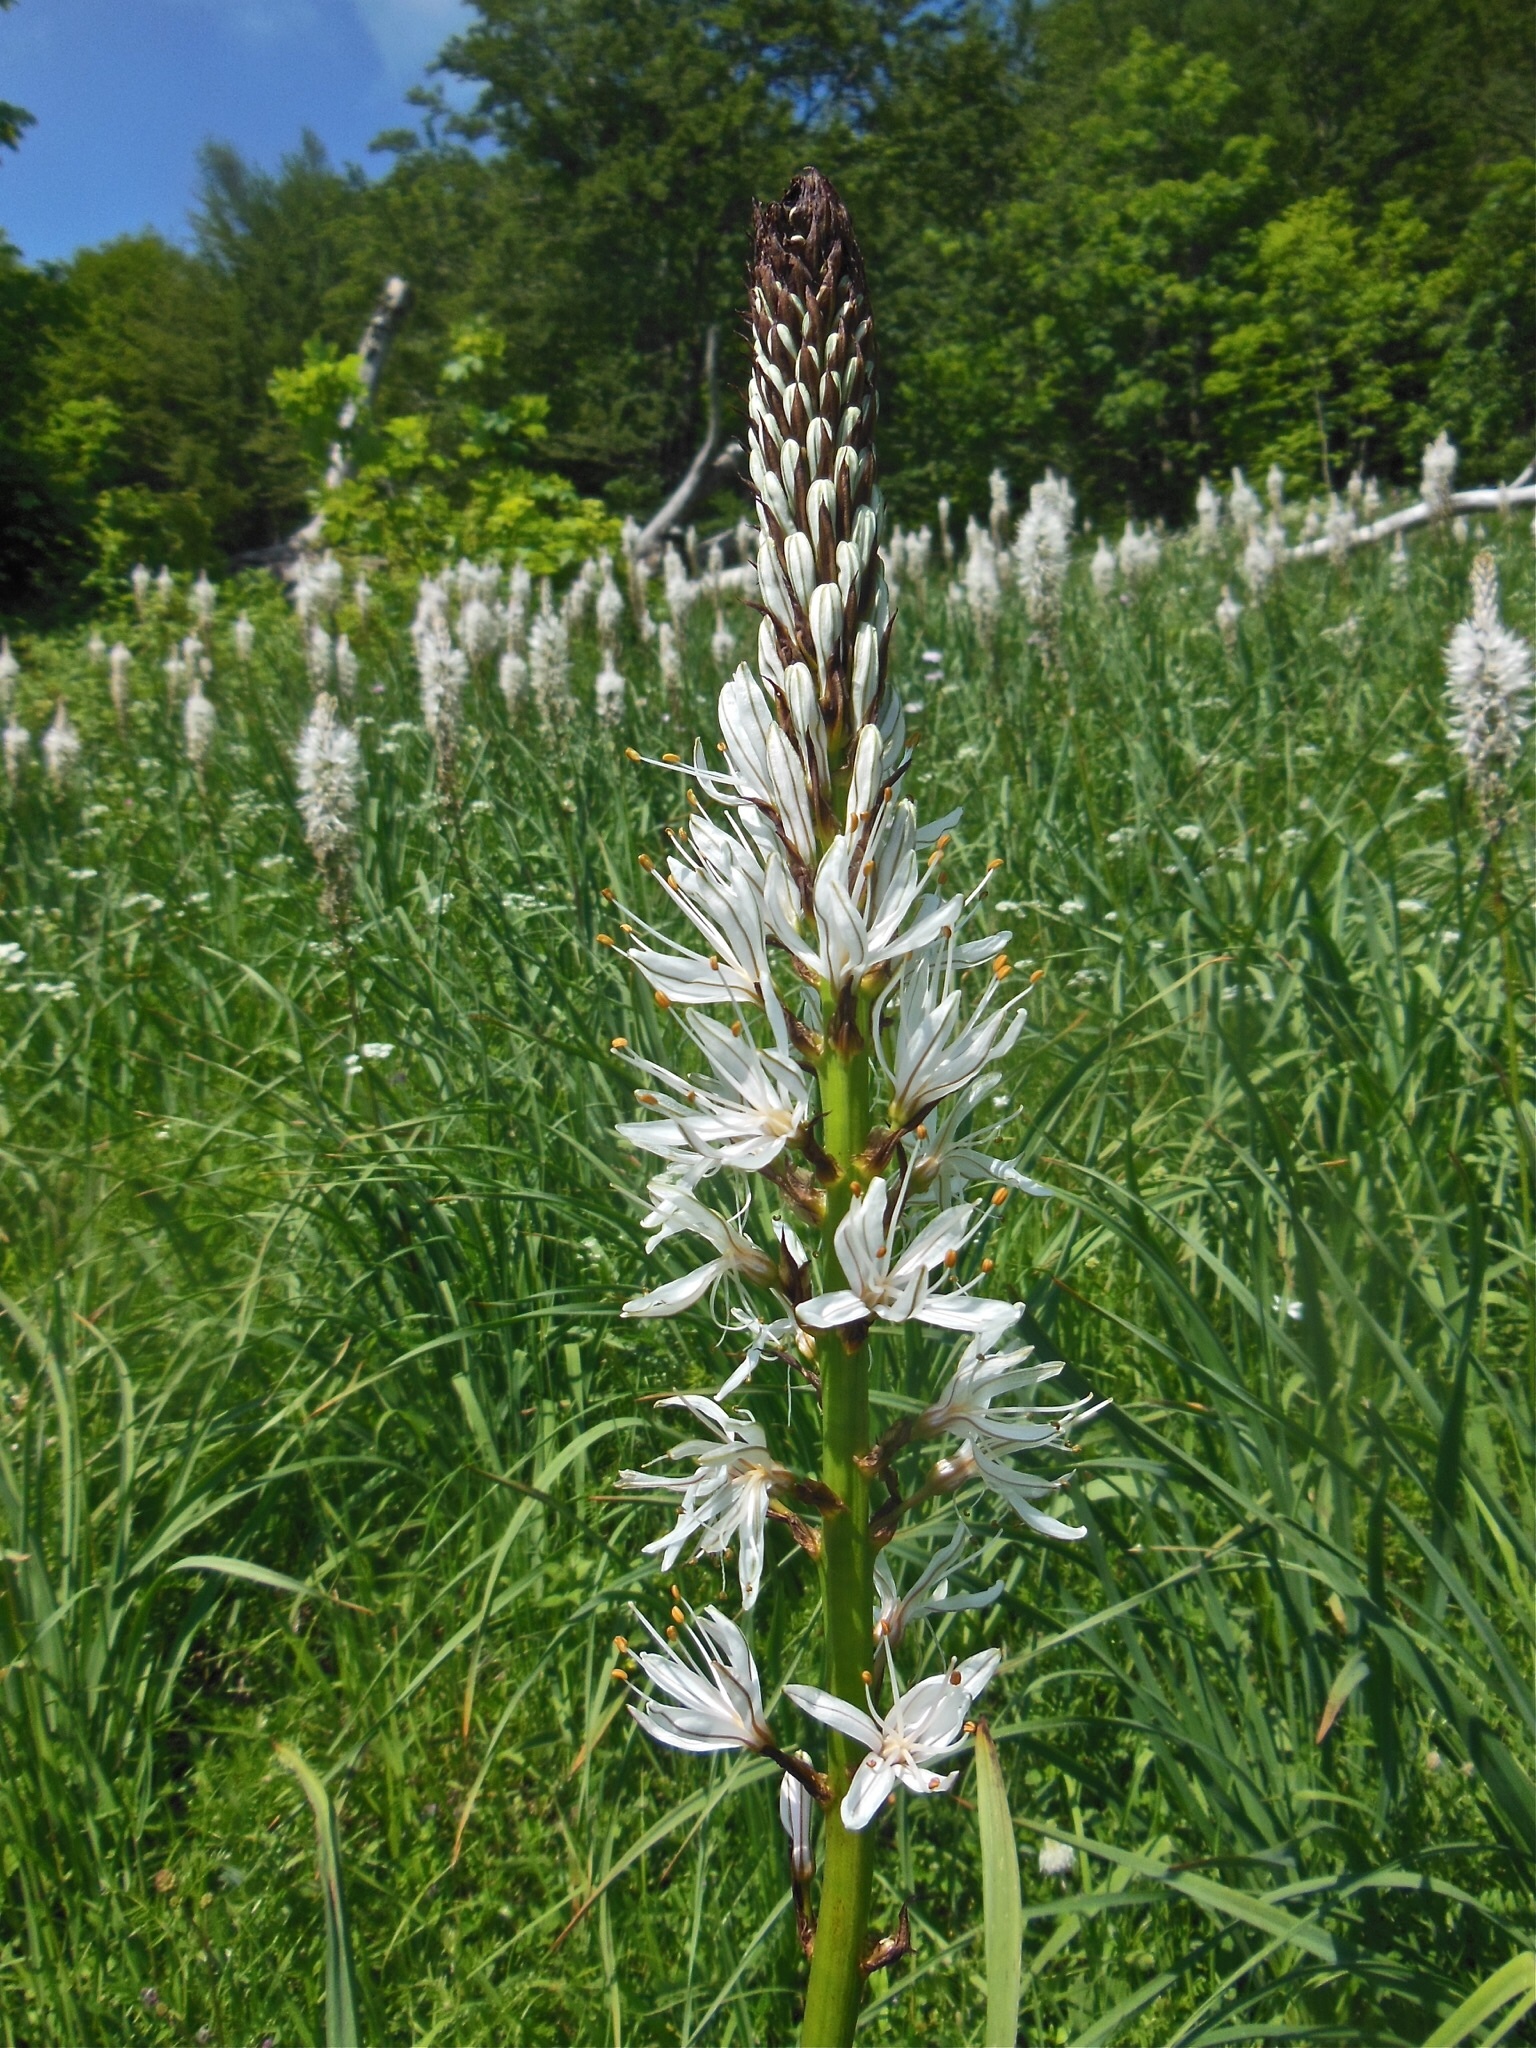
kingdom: Plantae
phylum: Tracheophyta
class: Liliopsida
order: Asparagales
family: Asphodelaceae
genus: Asphodelus
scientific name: Asphodelus albus
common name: White asphodel
